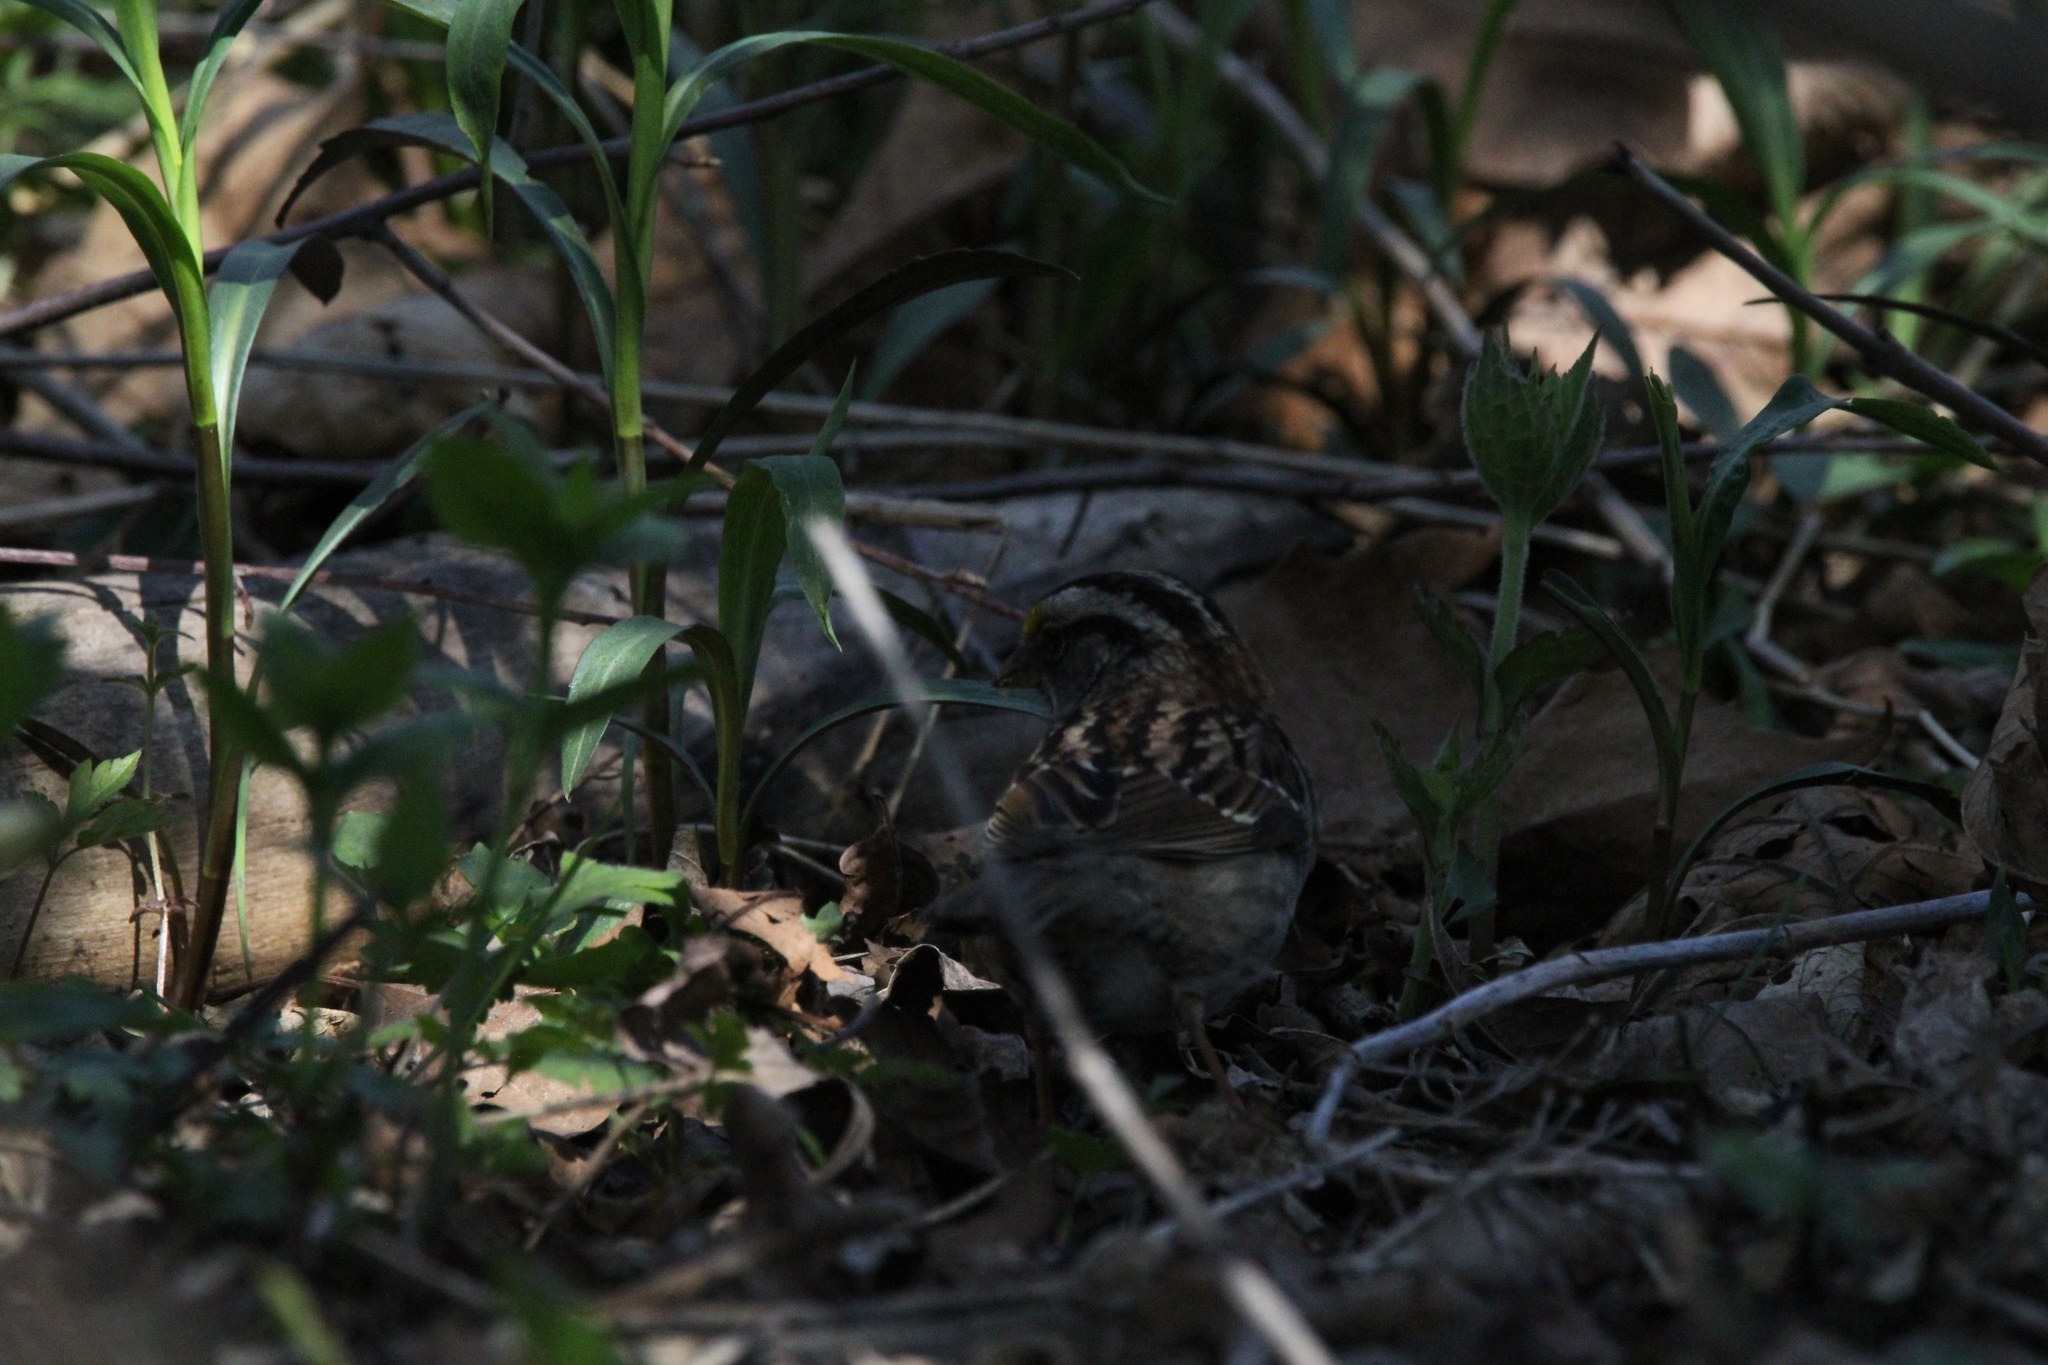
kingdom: Animalia
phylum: Chordata
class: Aves
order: Passeriformes
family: Passerellidae
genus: Zonotrichia
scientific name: Zonotrichia albicollis
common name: White-throated sparrow
